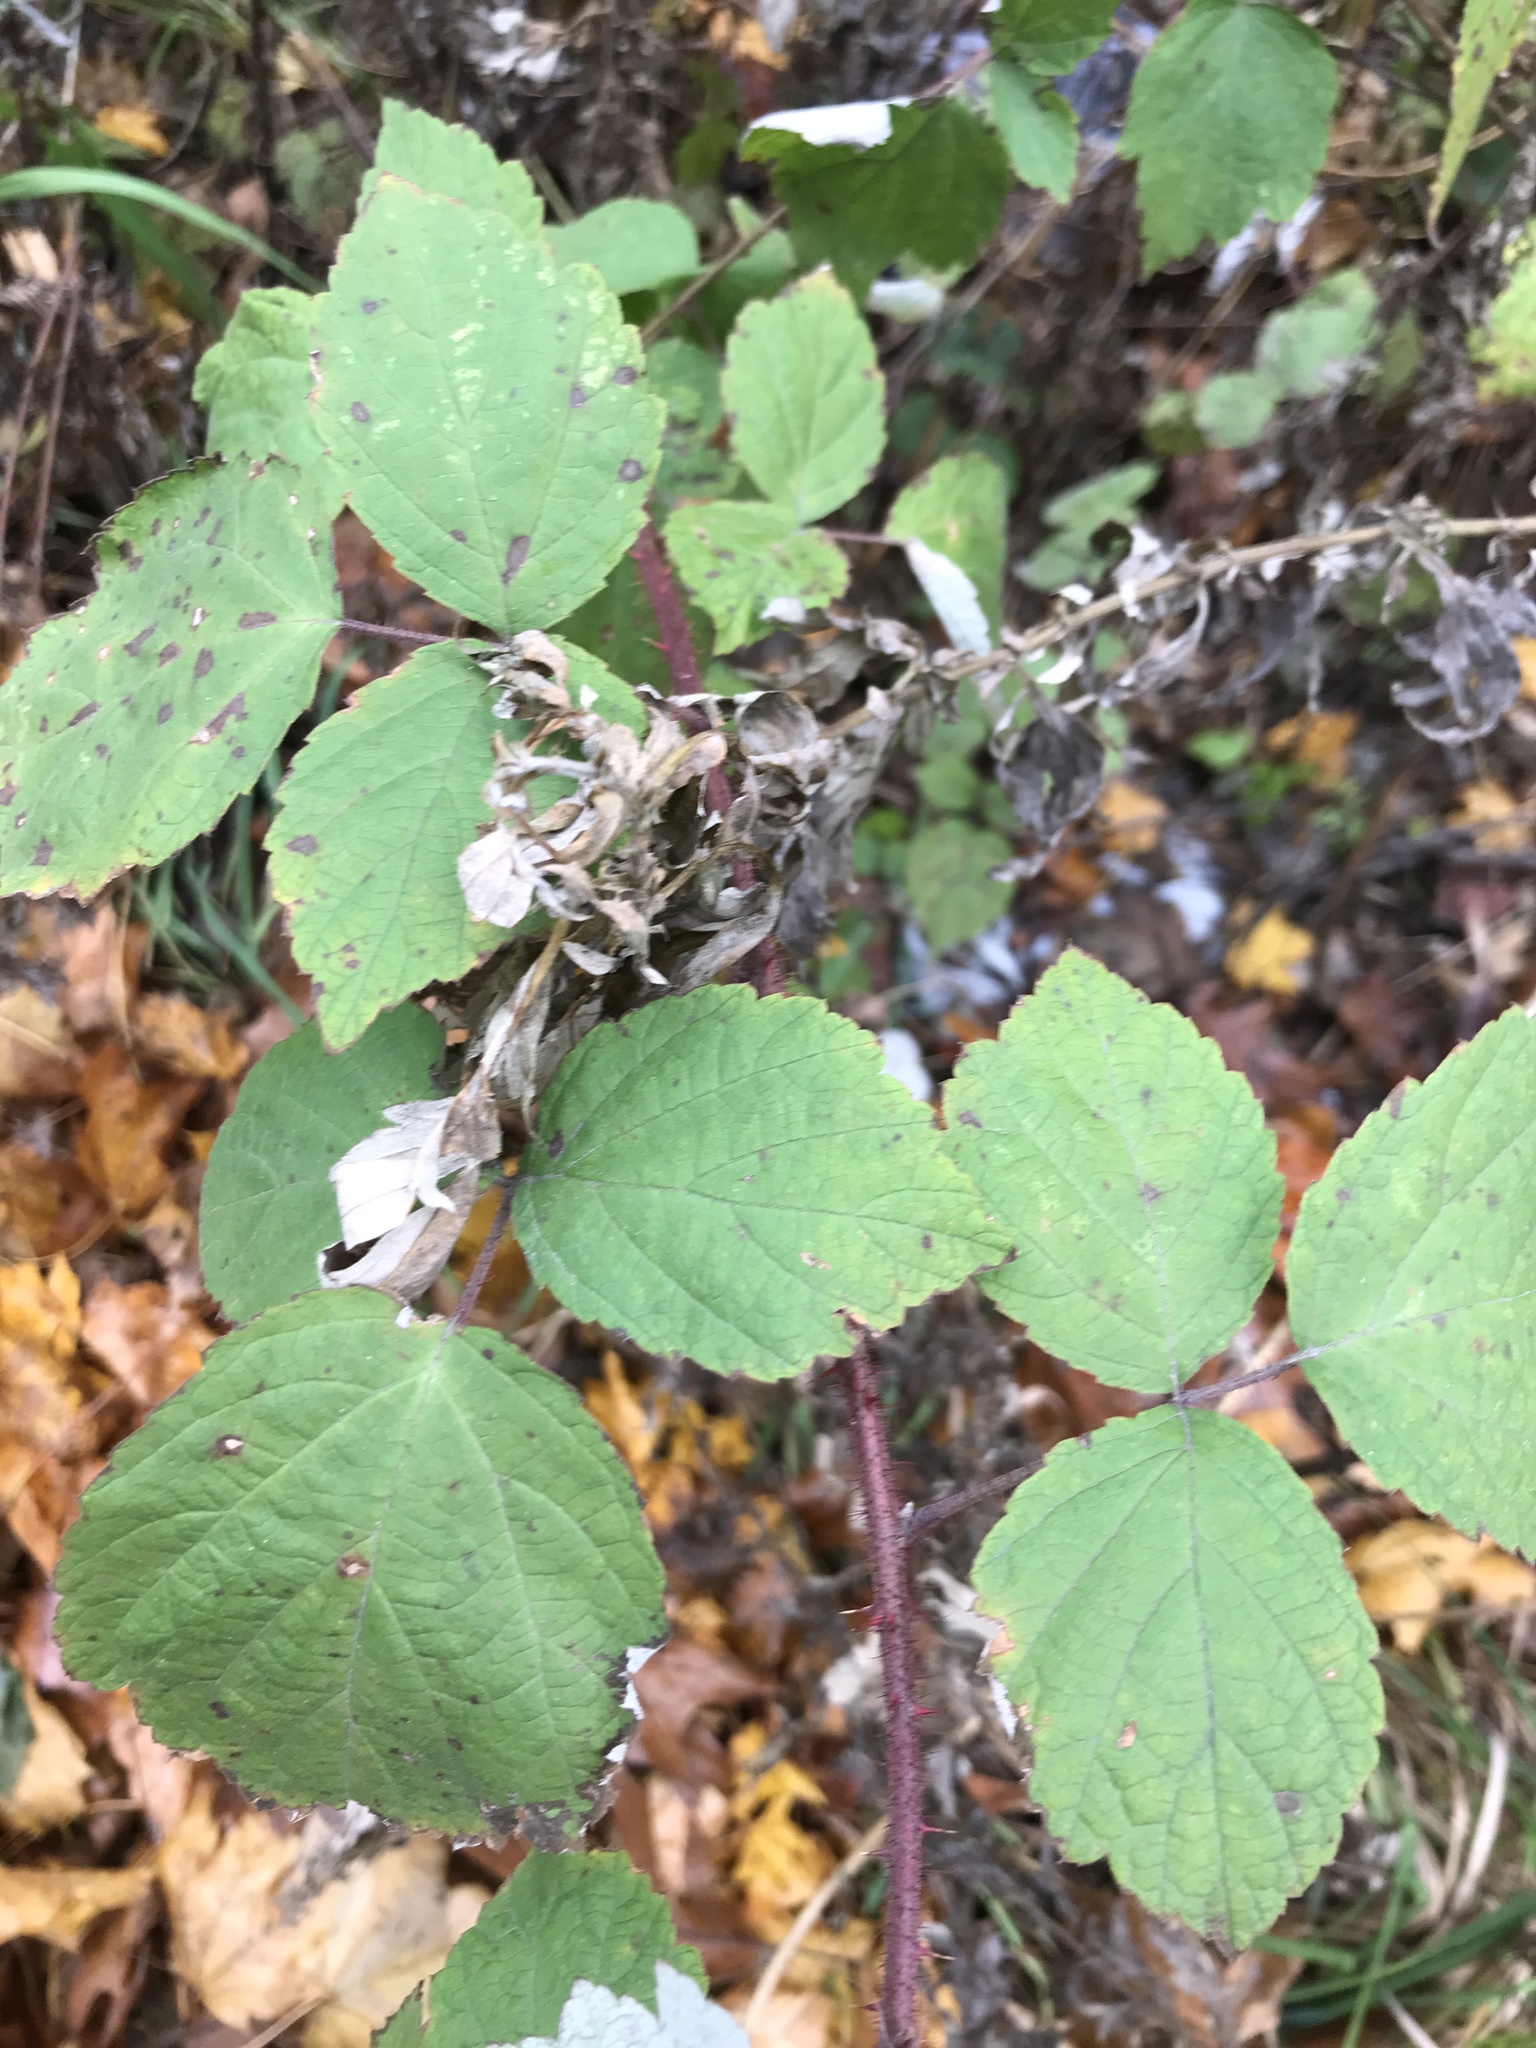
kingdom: Plantae
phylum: Tracheophyta
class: Magnoliopsida
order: Rosales
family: Rosaceae
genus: Rubus
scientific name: Rubus phoenicolasius
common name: Japanese wineberry
